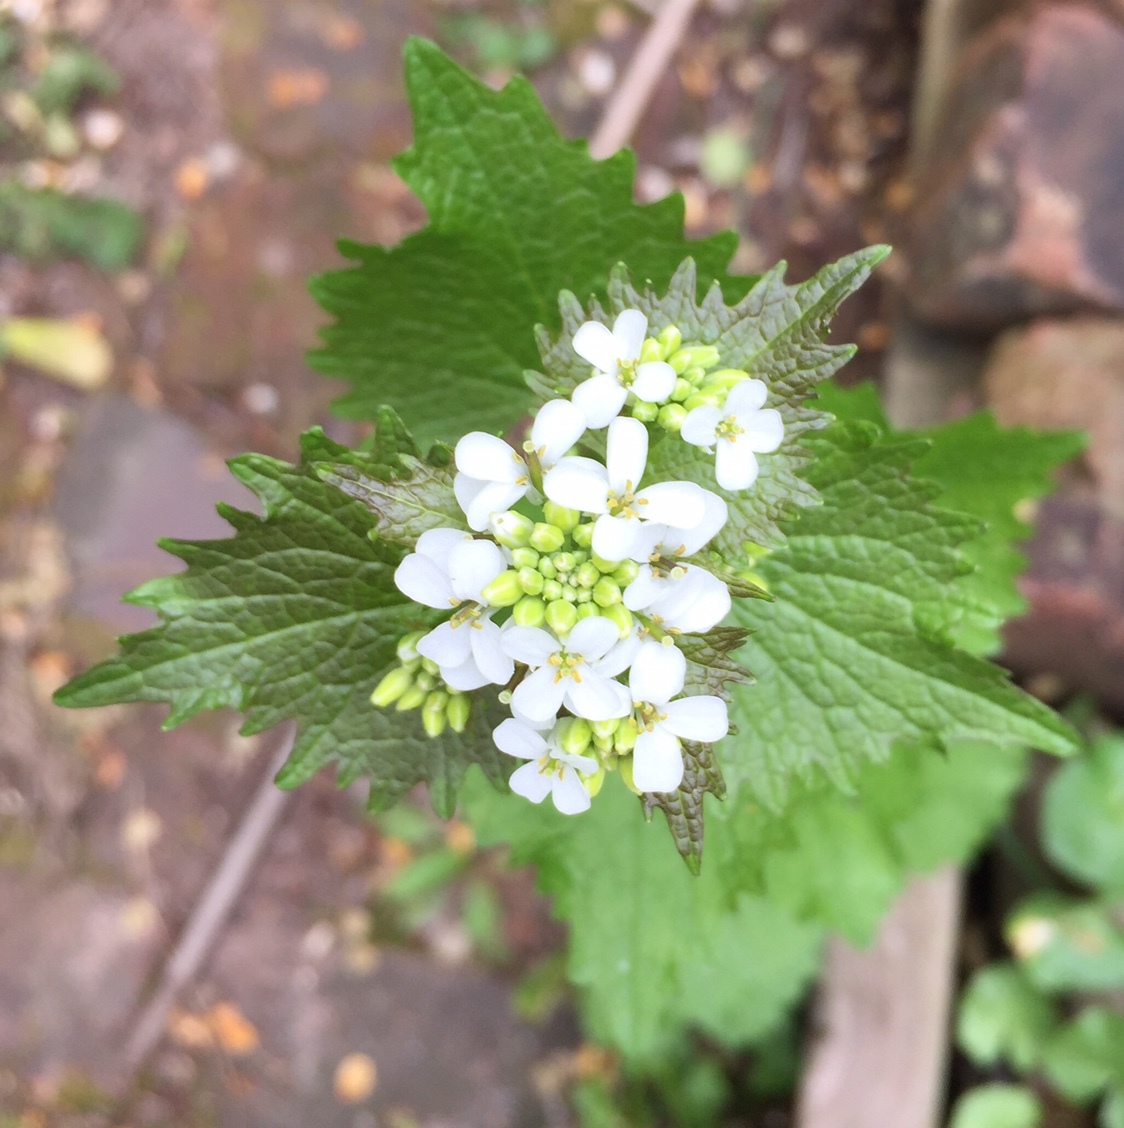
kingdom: Plantae
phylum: Tracheophyta
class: Magnoliopsida
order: Brassicales
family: Brassicaceae
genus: Alliaria
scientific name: Alliaria petiolata
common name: Garlic mustard
